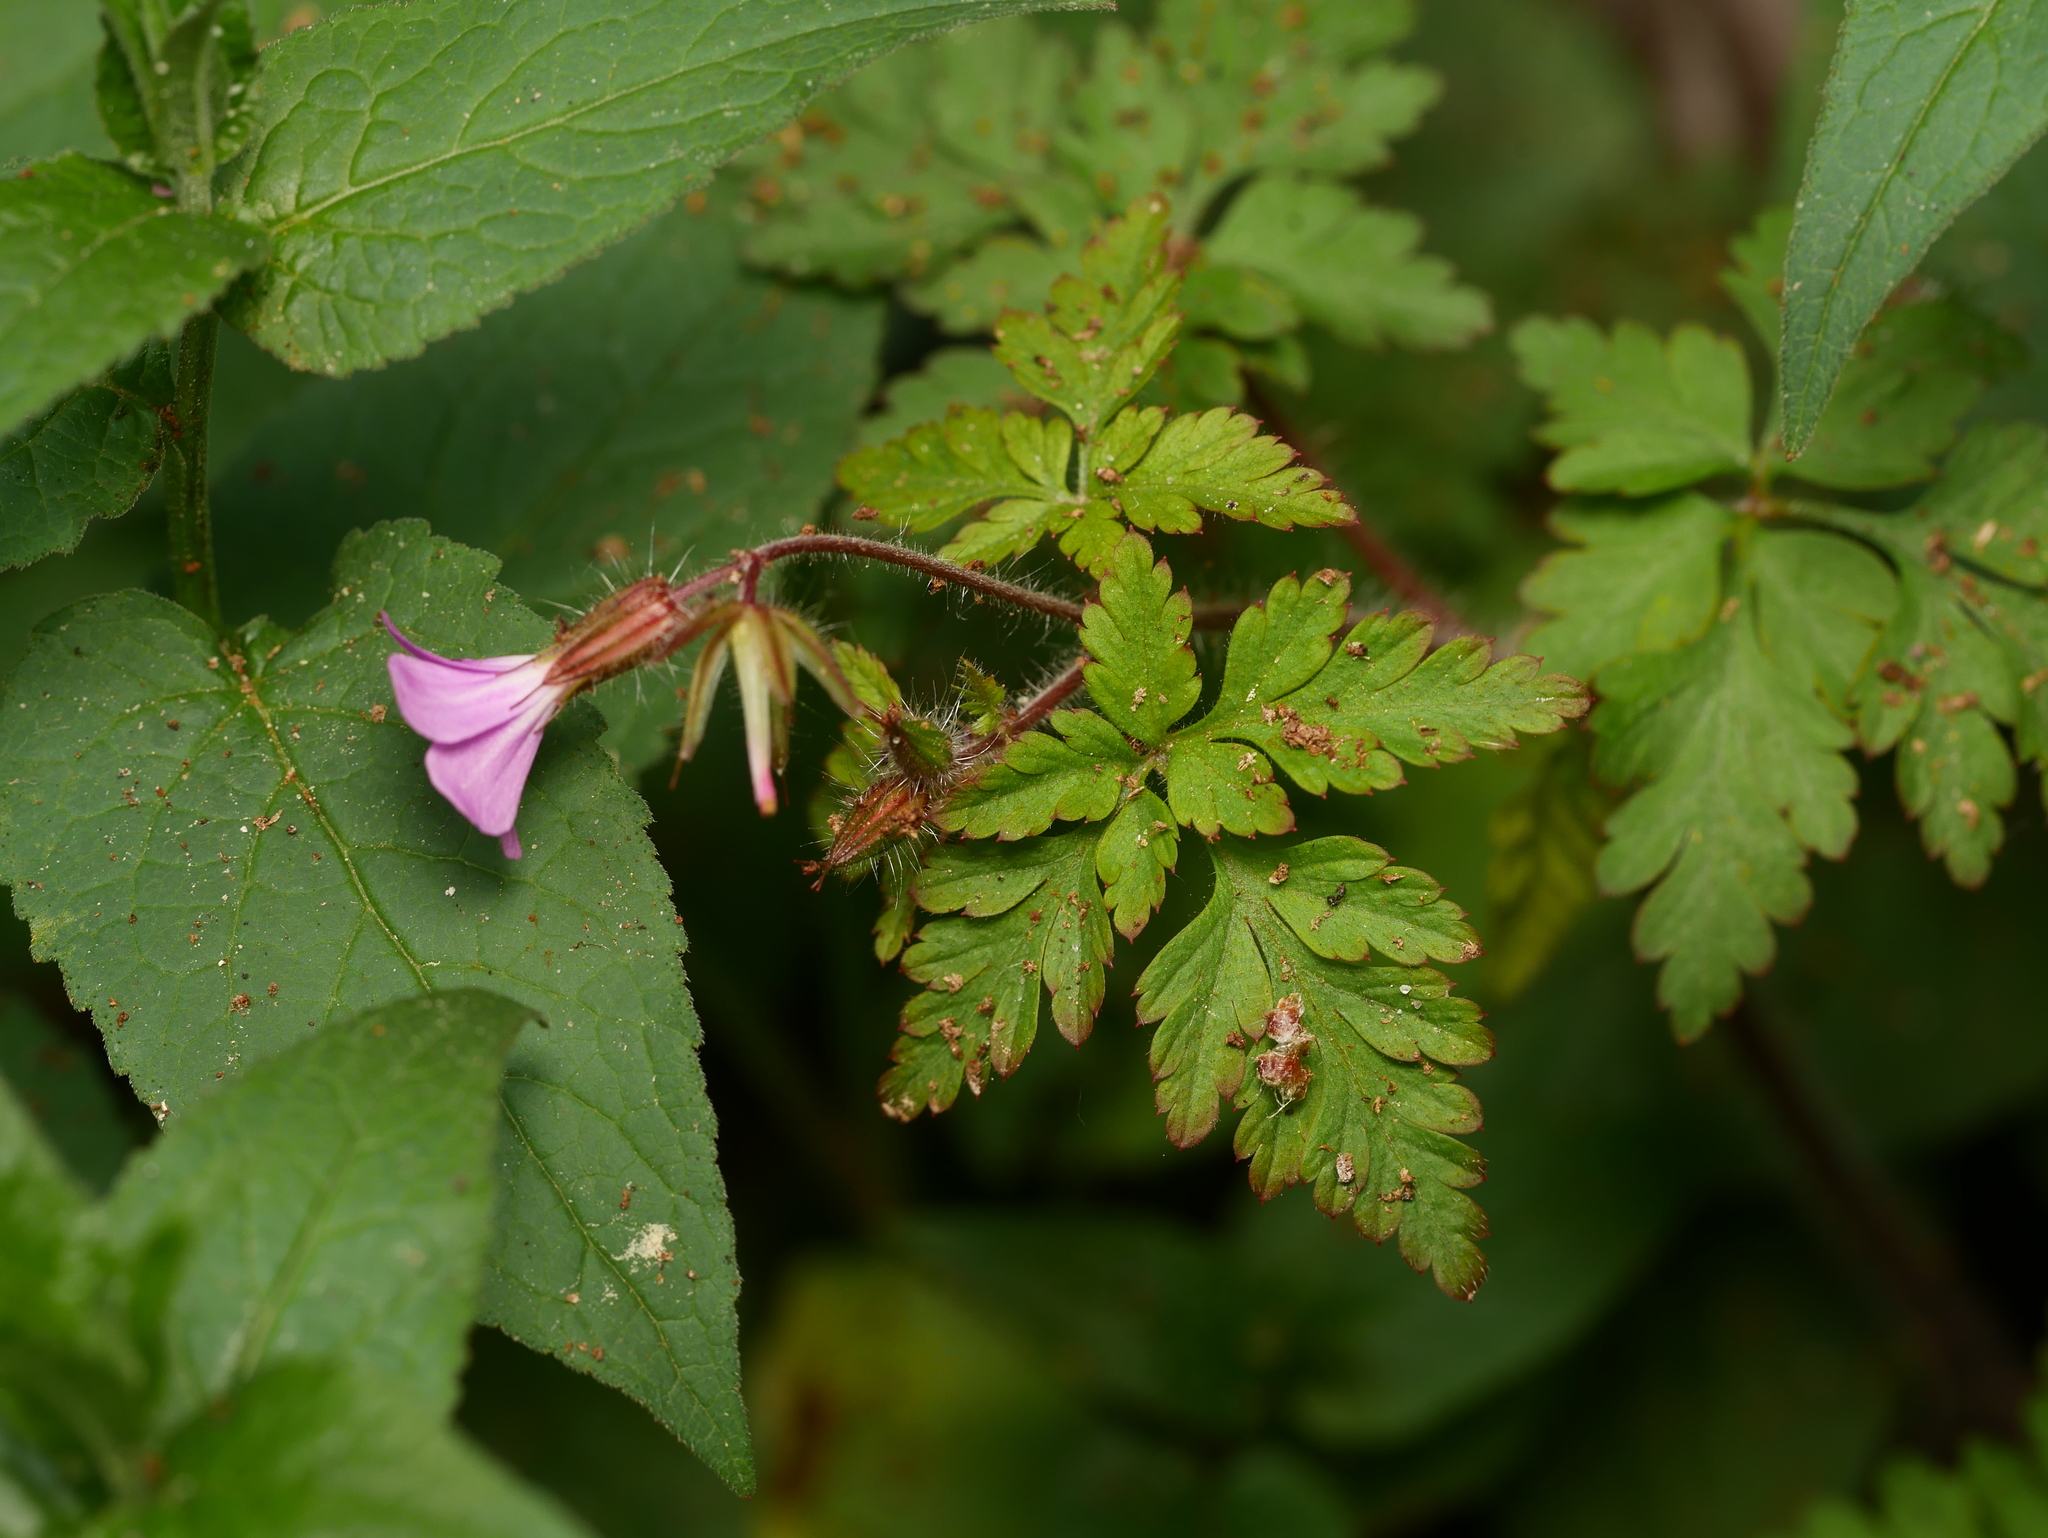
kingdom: Plantae
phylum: Tracheophyta
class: Magnoliopsida
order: Geraniales
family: Geraniaceae
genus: Geranium
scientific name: Geranium robertianum
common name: Herb-robert
